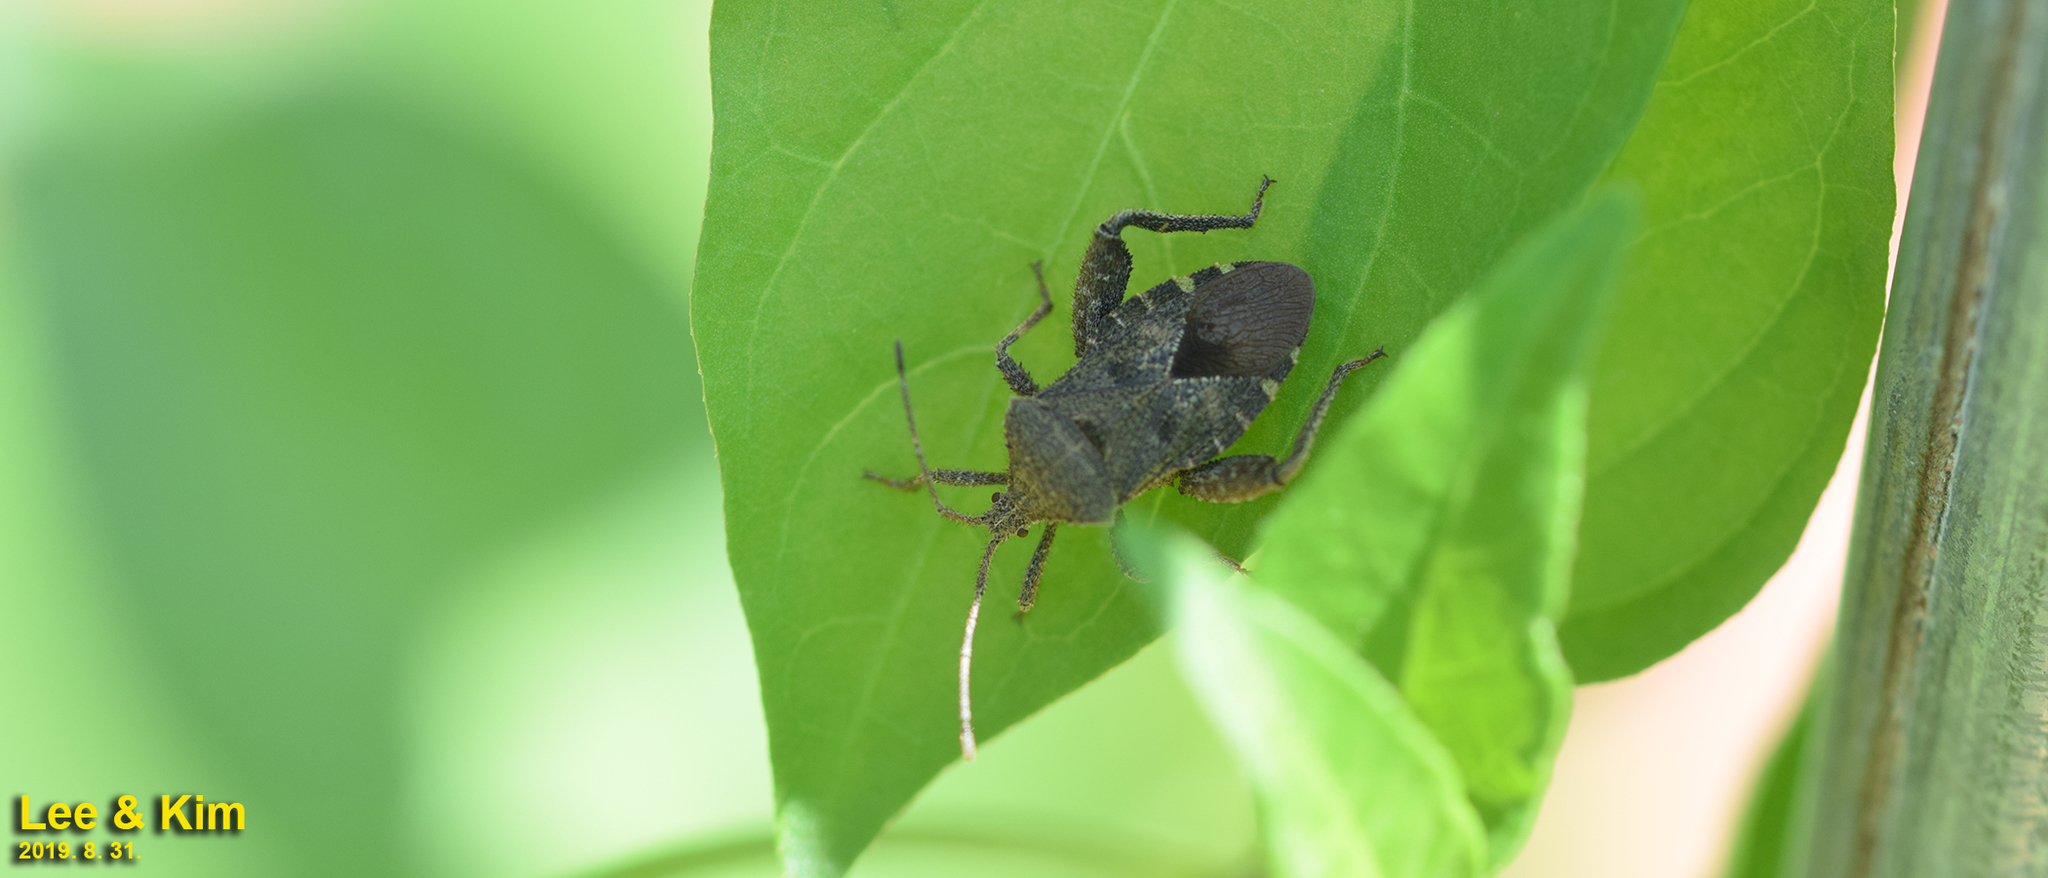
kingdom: Animalia
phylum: Arthropoda
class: Insecta
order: Hemiptera
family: Coreidae
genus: Acanthocoris
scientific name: Acanthocoris sordidus
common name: Winter cherry bug
